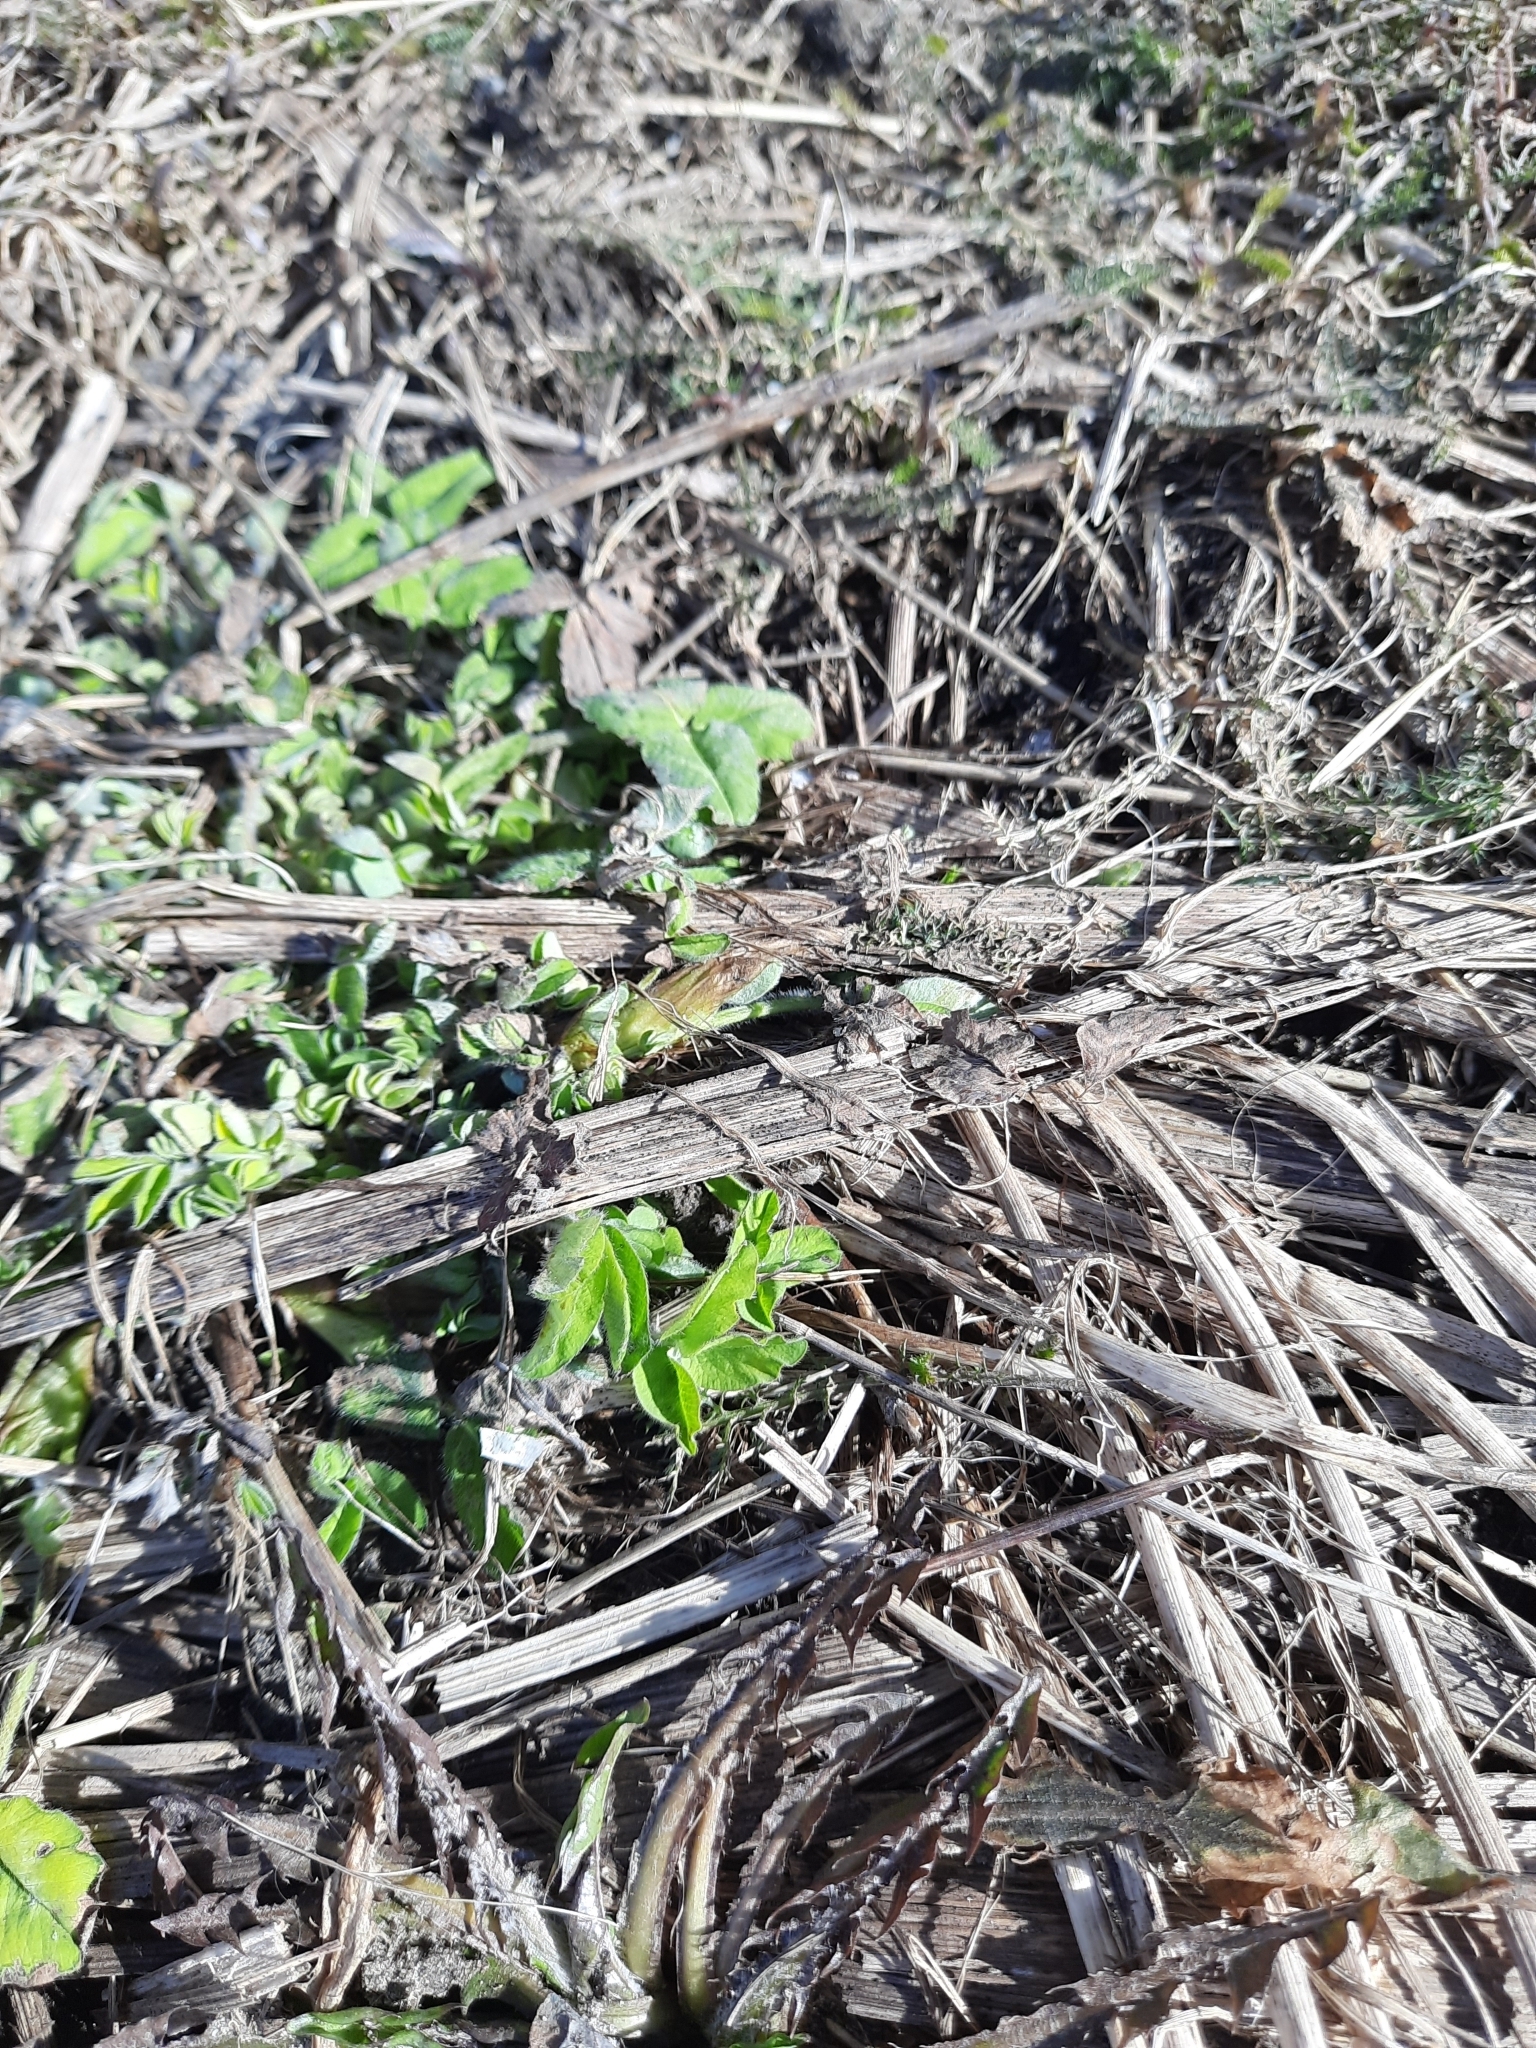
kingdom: Plantae
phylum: Tracheophyta
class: Magnoliopsida
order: Fabales
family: Fabaceae
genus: Trifolium
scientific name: Trifolium pratense
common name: Red clover
